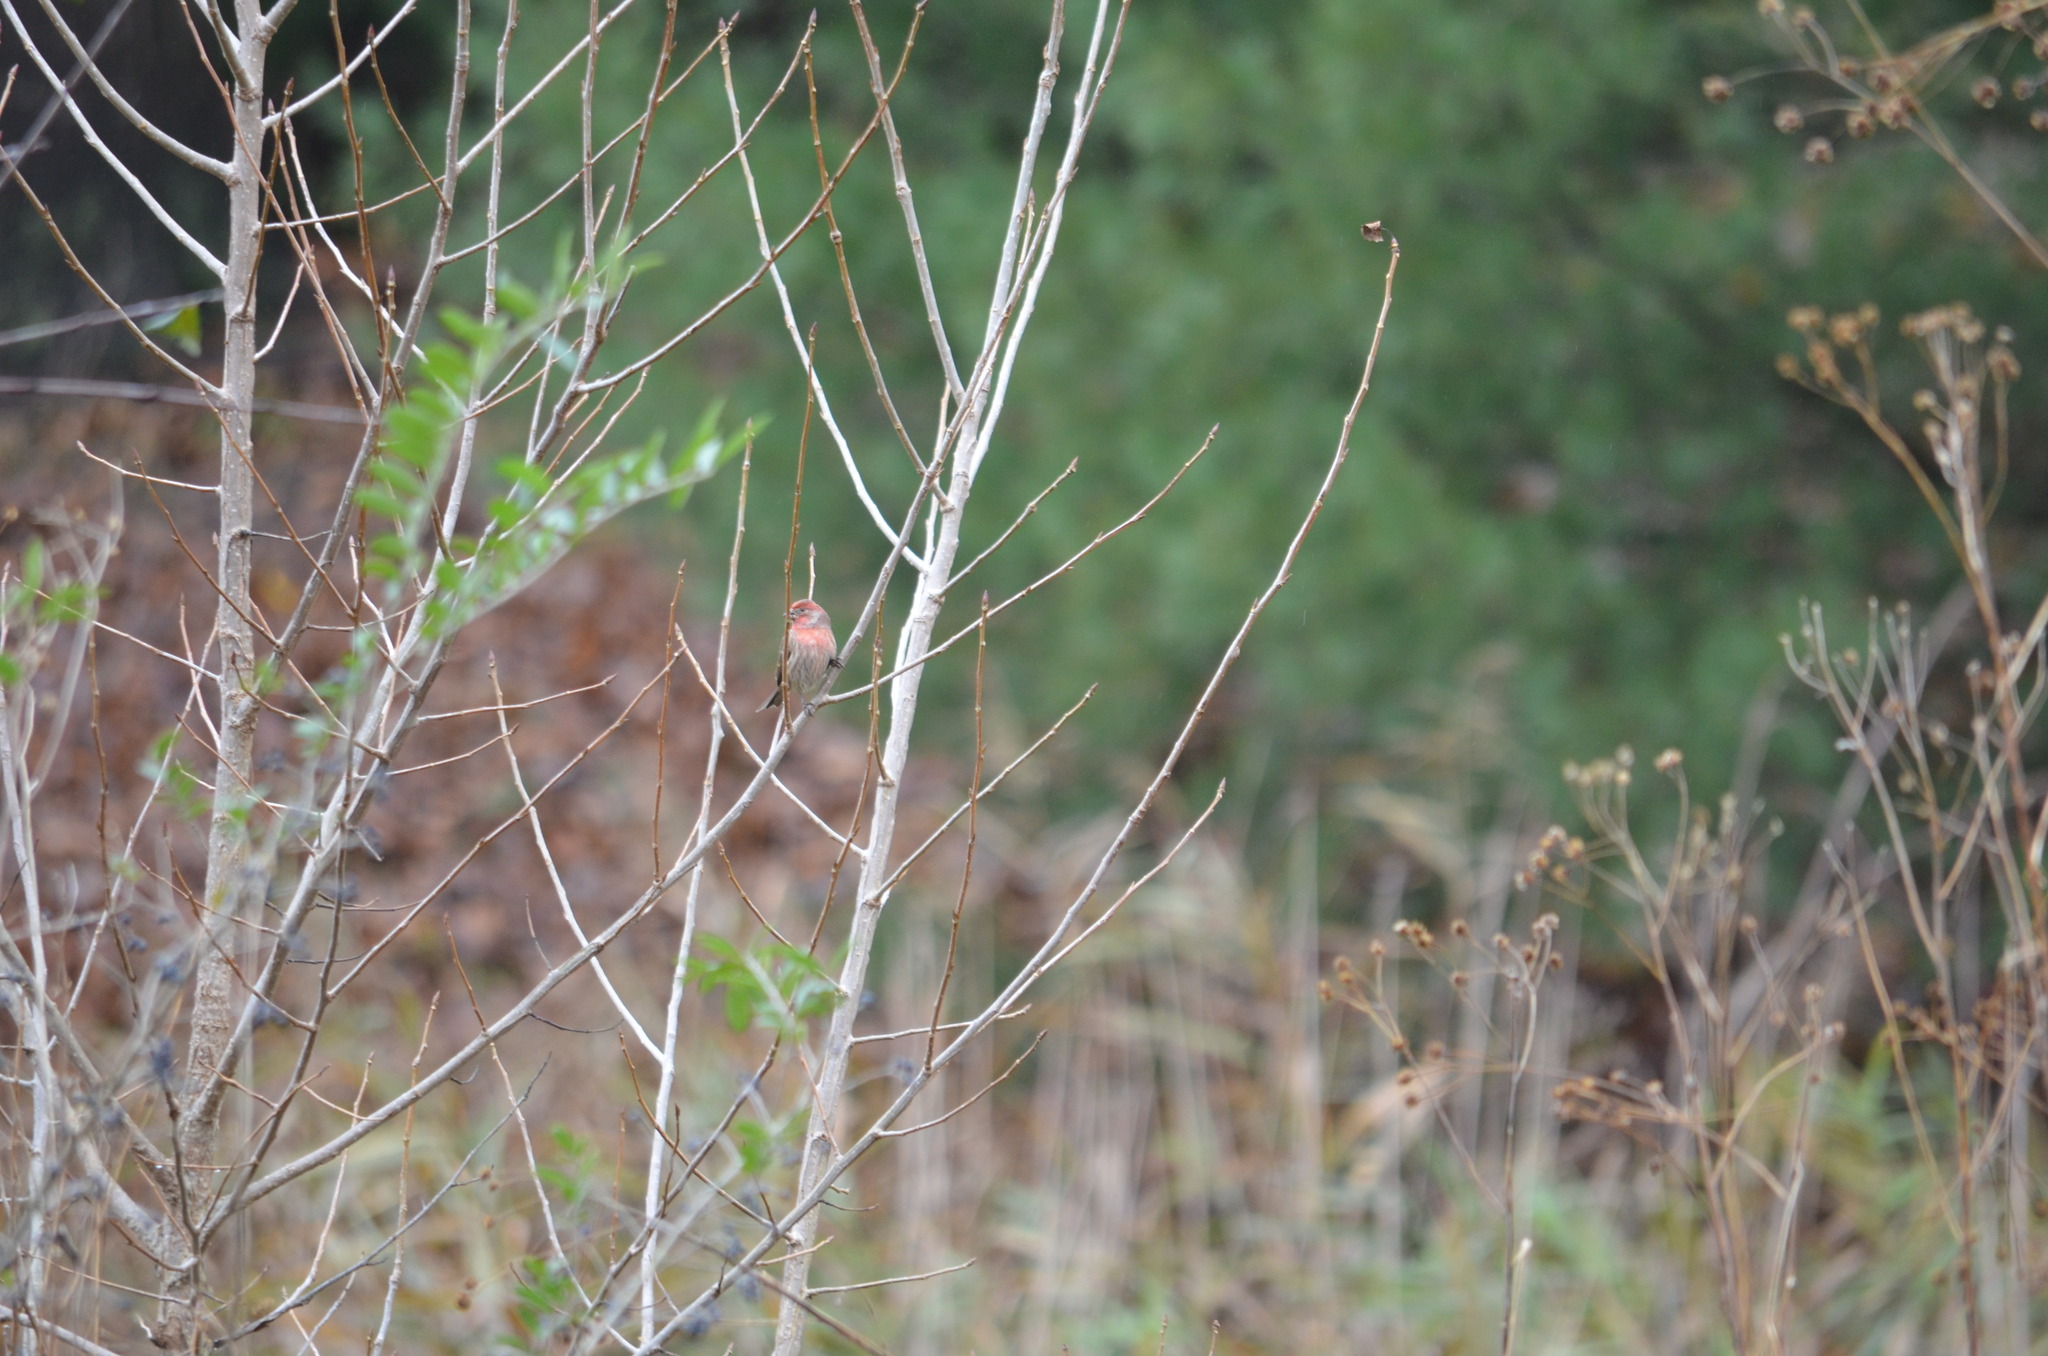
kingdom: Animalia
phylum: Chordata
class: Aves
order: Passeriformes
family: Fringillidae
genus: Haemorhous
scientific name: Haemorhous mexicanus
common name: House finch
